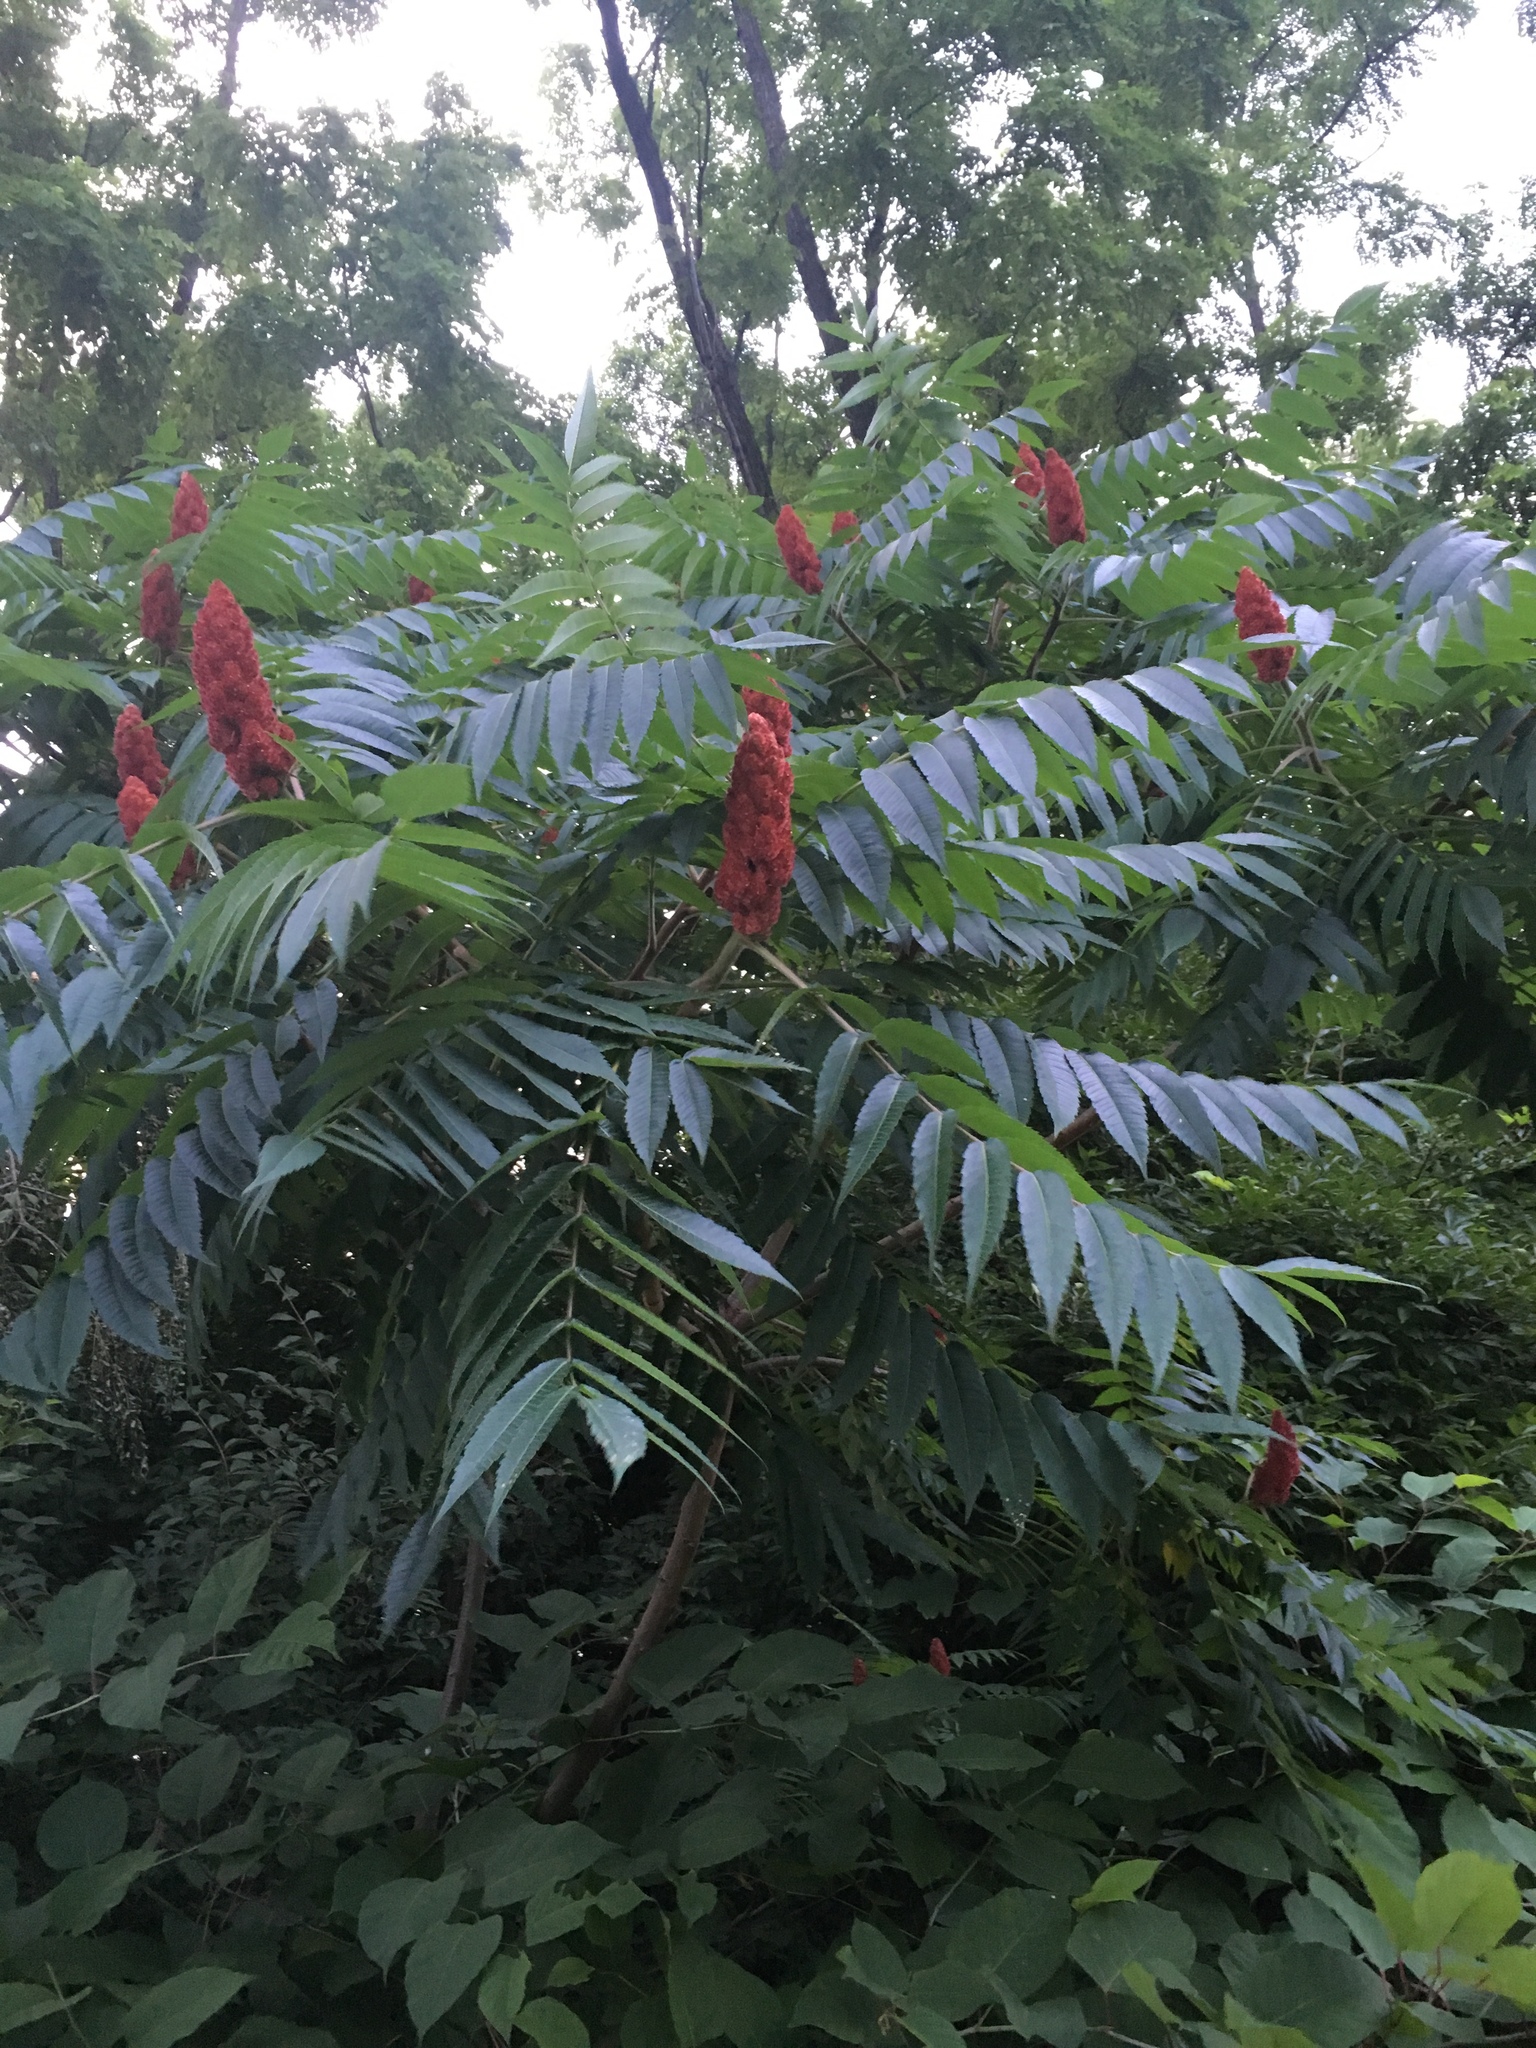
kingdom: Plantae
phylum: Tracheophyta
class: Magnoliopsida
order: Sapindales
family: Anacardiaceae
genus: Rhus
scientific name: Rhus typhina
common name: Staghorn sumac
